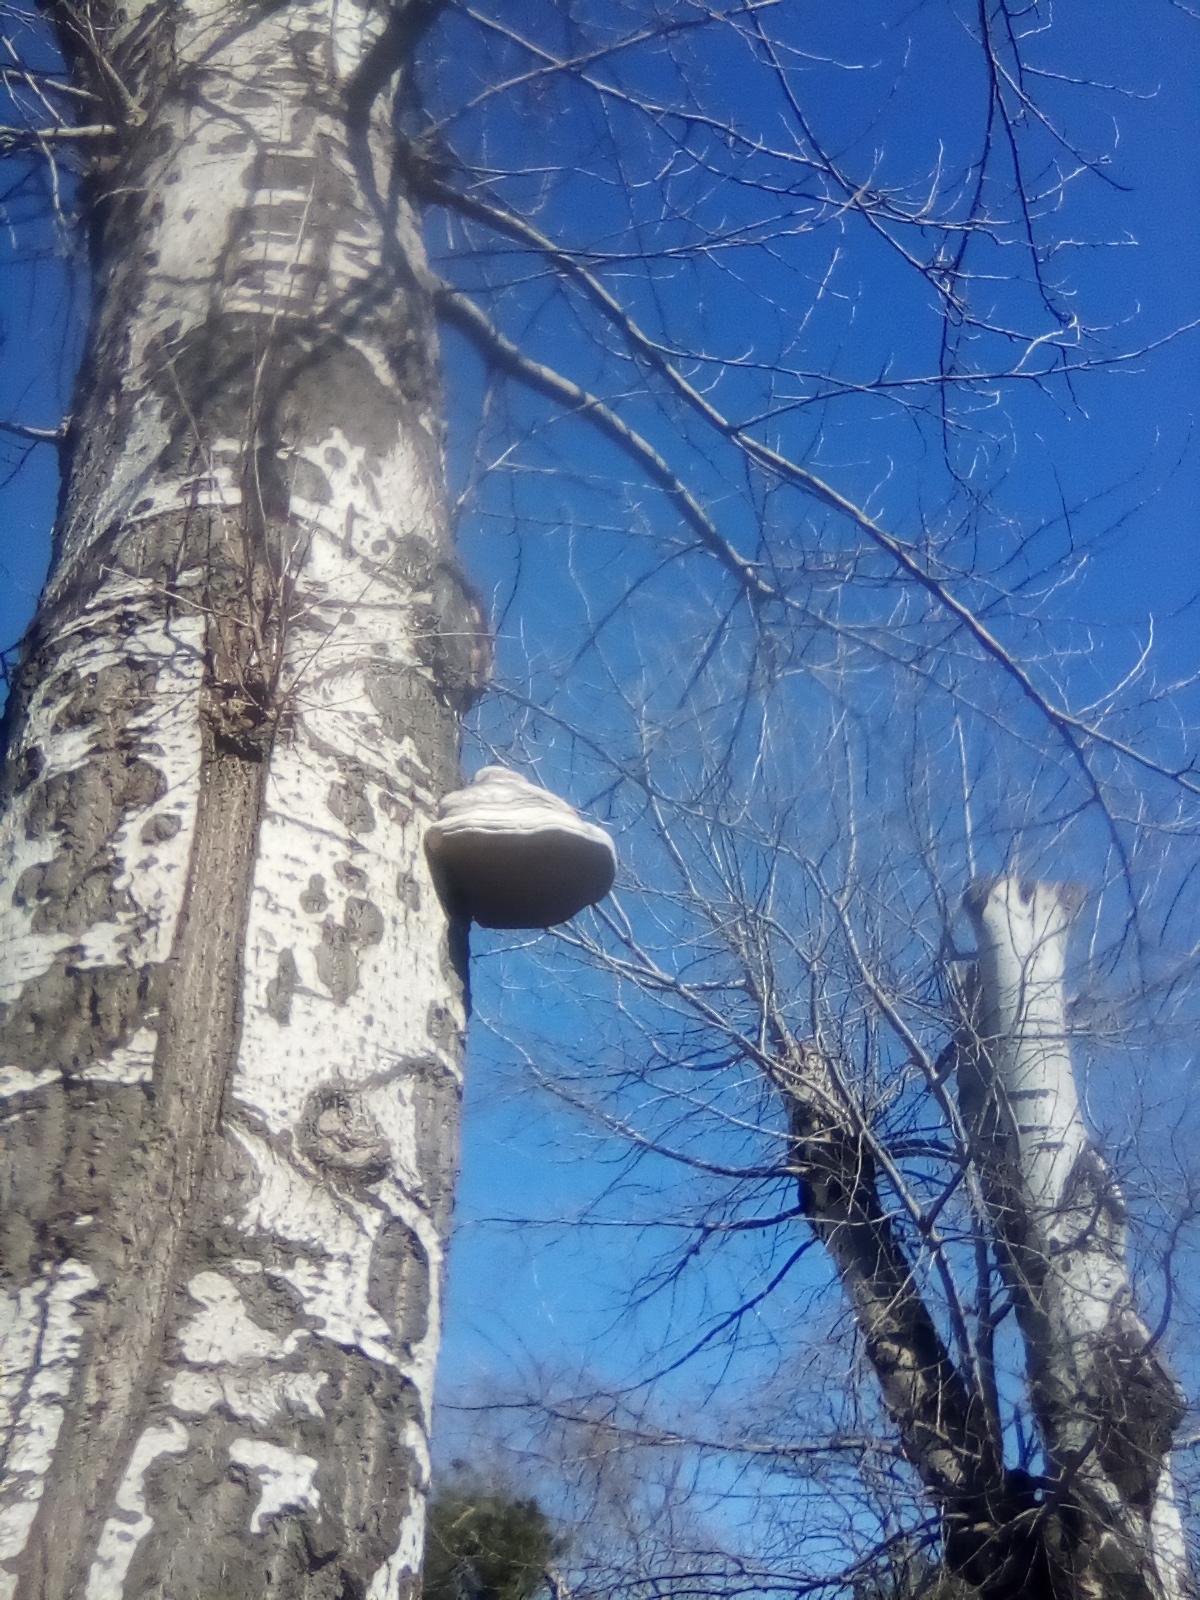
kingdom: Fungi
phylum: Basidiomycota
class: Agaricomycetes
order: Polyporales
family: Polyporaceae
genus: Fomes
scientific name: Fomes fomentarius
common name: Hoof fungus
